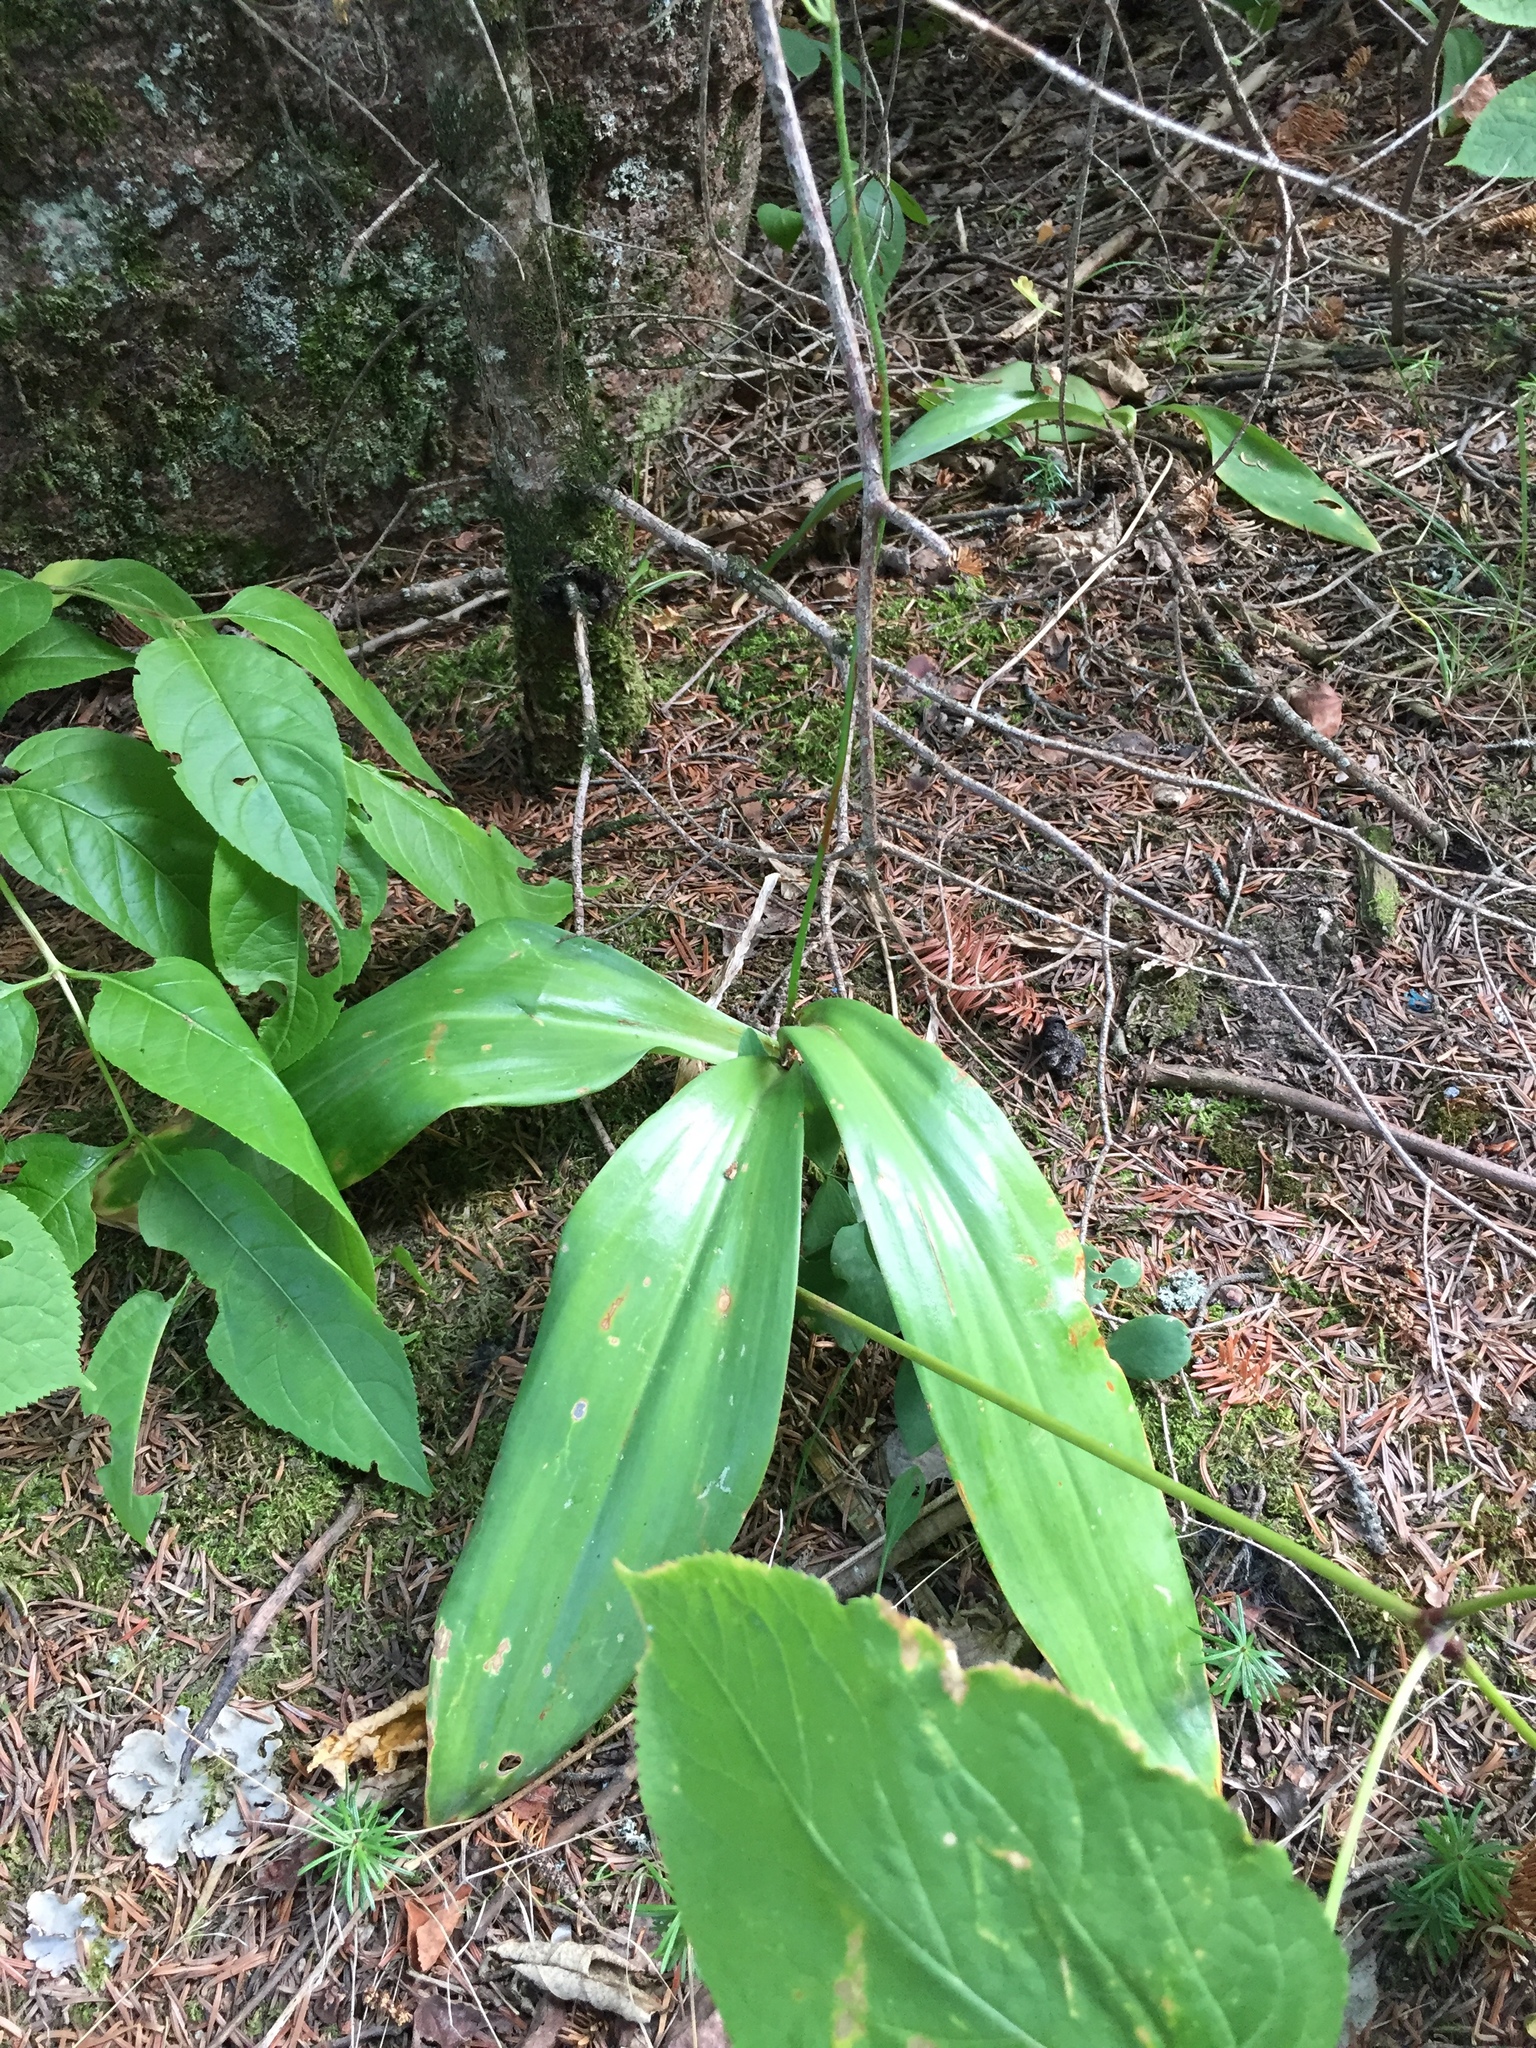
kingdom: Plantae
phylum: Tracheophyta
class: Liliopsida
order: Liliales
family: Liliaceae
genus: Clintonia
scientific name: Clintonia borealis
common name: Yellow clintonia
